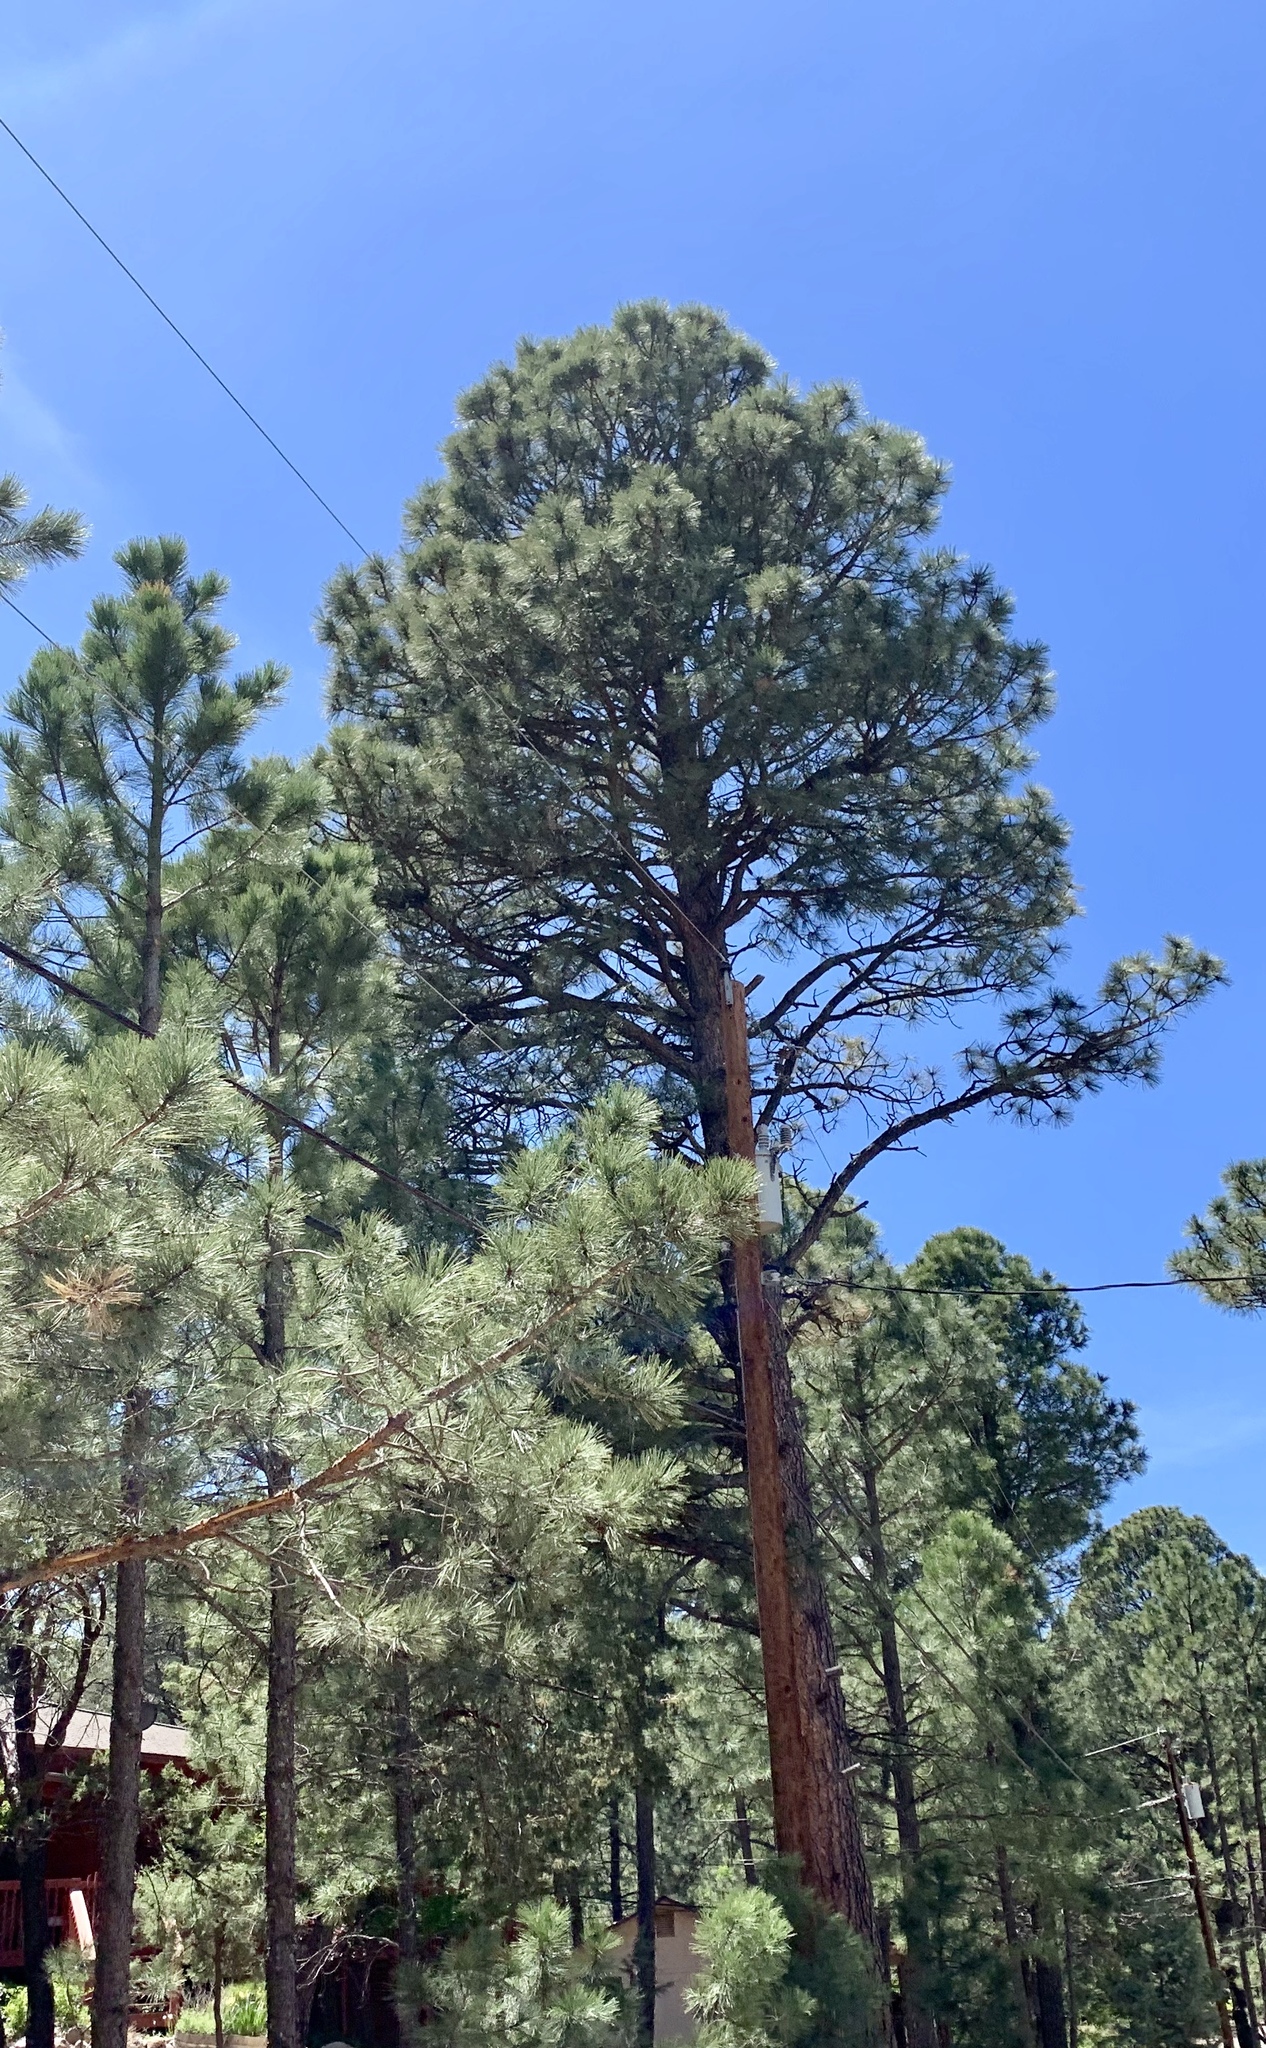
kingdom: Plantae
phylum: Tracheophyta
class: Pinopsida
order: Pinales
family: Pinaceae
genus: Pinus
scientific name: Pinus ponderosa
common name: Western yellow-pine
